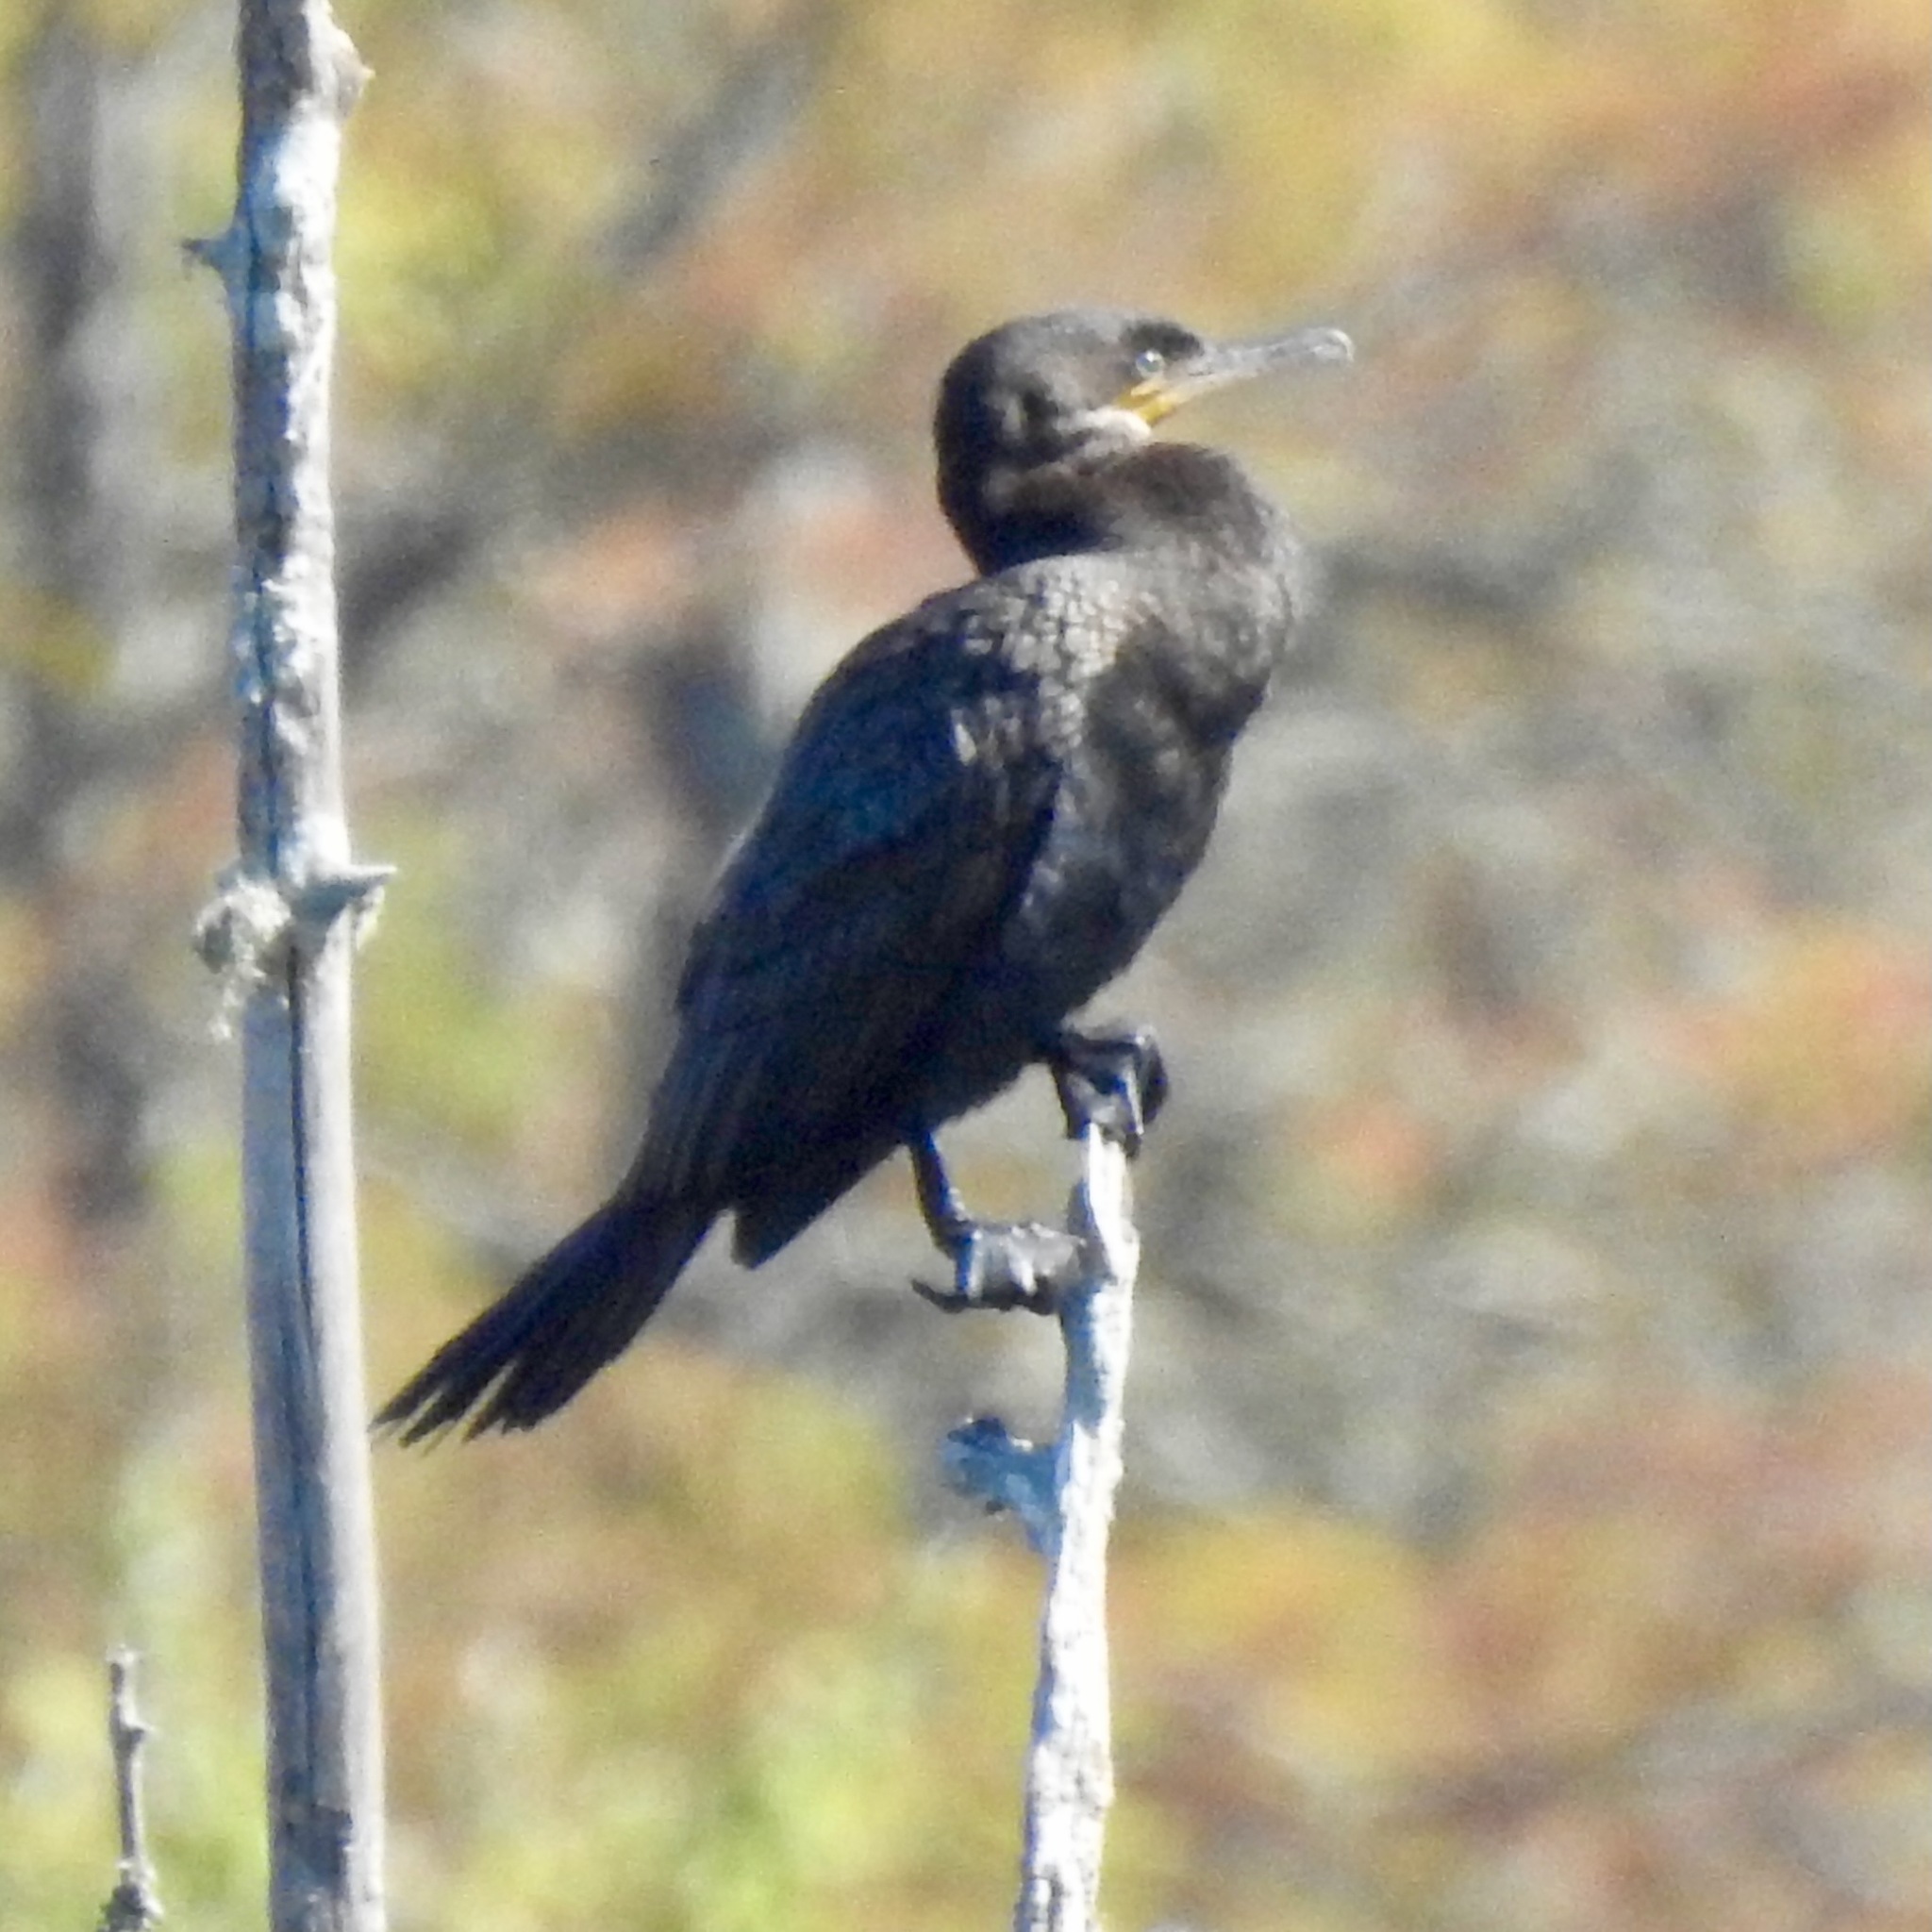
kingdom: Animalia
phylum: Chordata
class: Aves
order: Suliformes
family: Phalacrocoracidae
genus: Phalacrocorax
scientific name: Phalacrocorax auritus
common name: Double-crested cormorant
